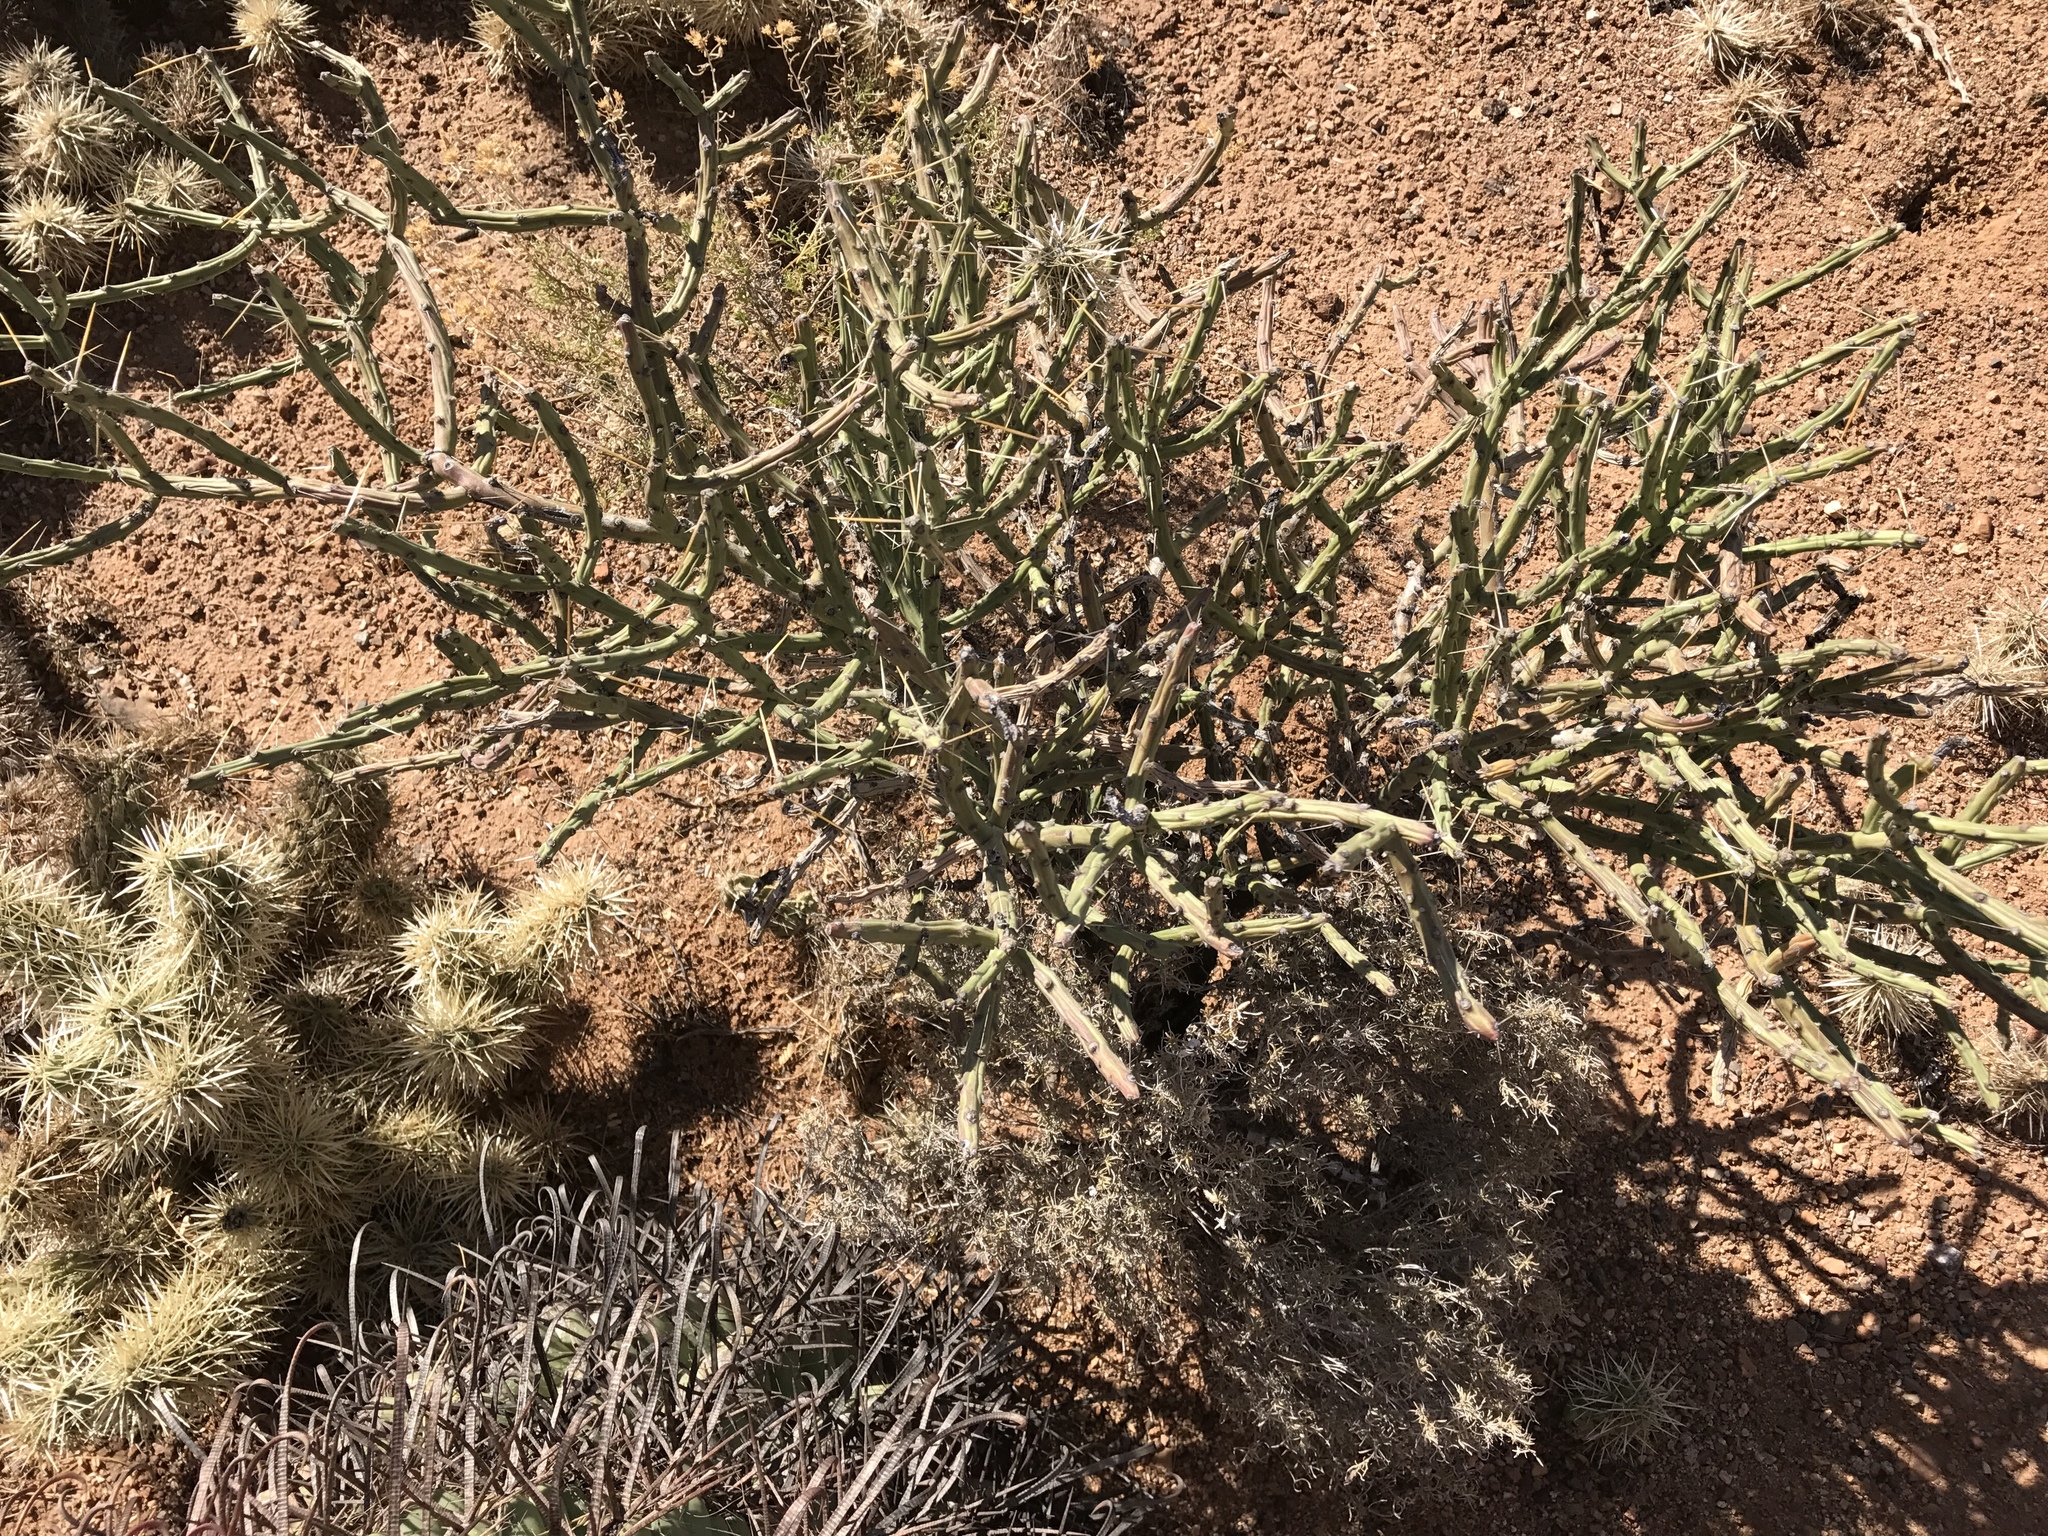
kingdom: Plantae
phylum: Tracheophyta
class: Magnoliopsida
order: Caryophyllales
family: Cactaceae
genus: Cylindropuntia
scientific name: Cylindropuntia arbuscula
